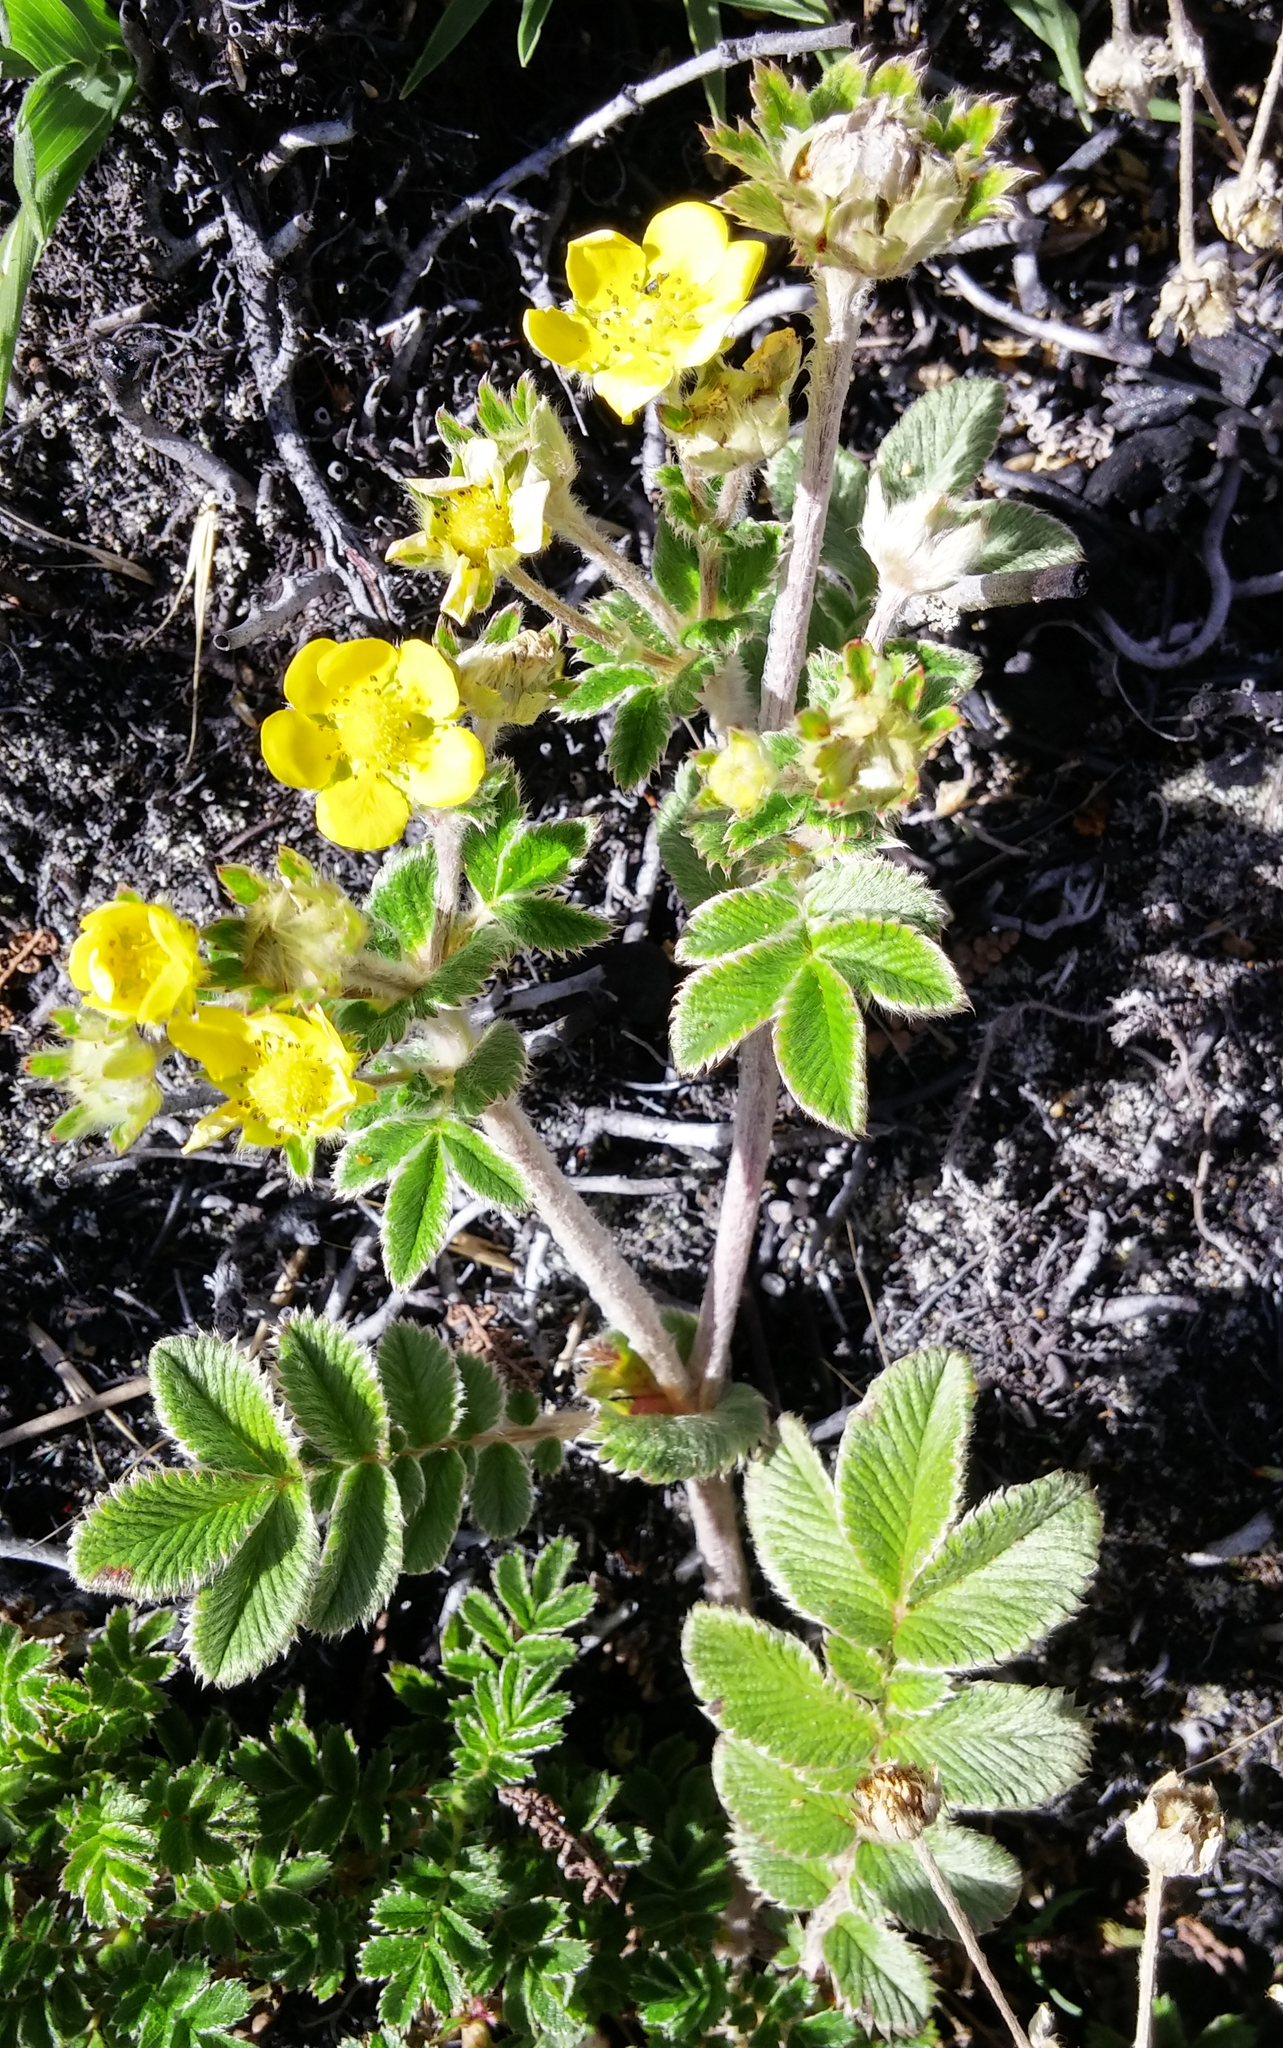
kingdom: Plantae
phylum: Tracheophyta
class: Magnoliopsida
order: Rosales
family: Rosaceae
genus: Argentina
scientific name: Argentina papuana
